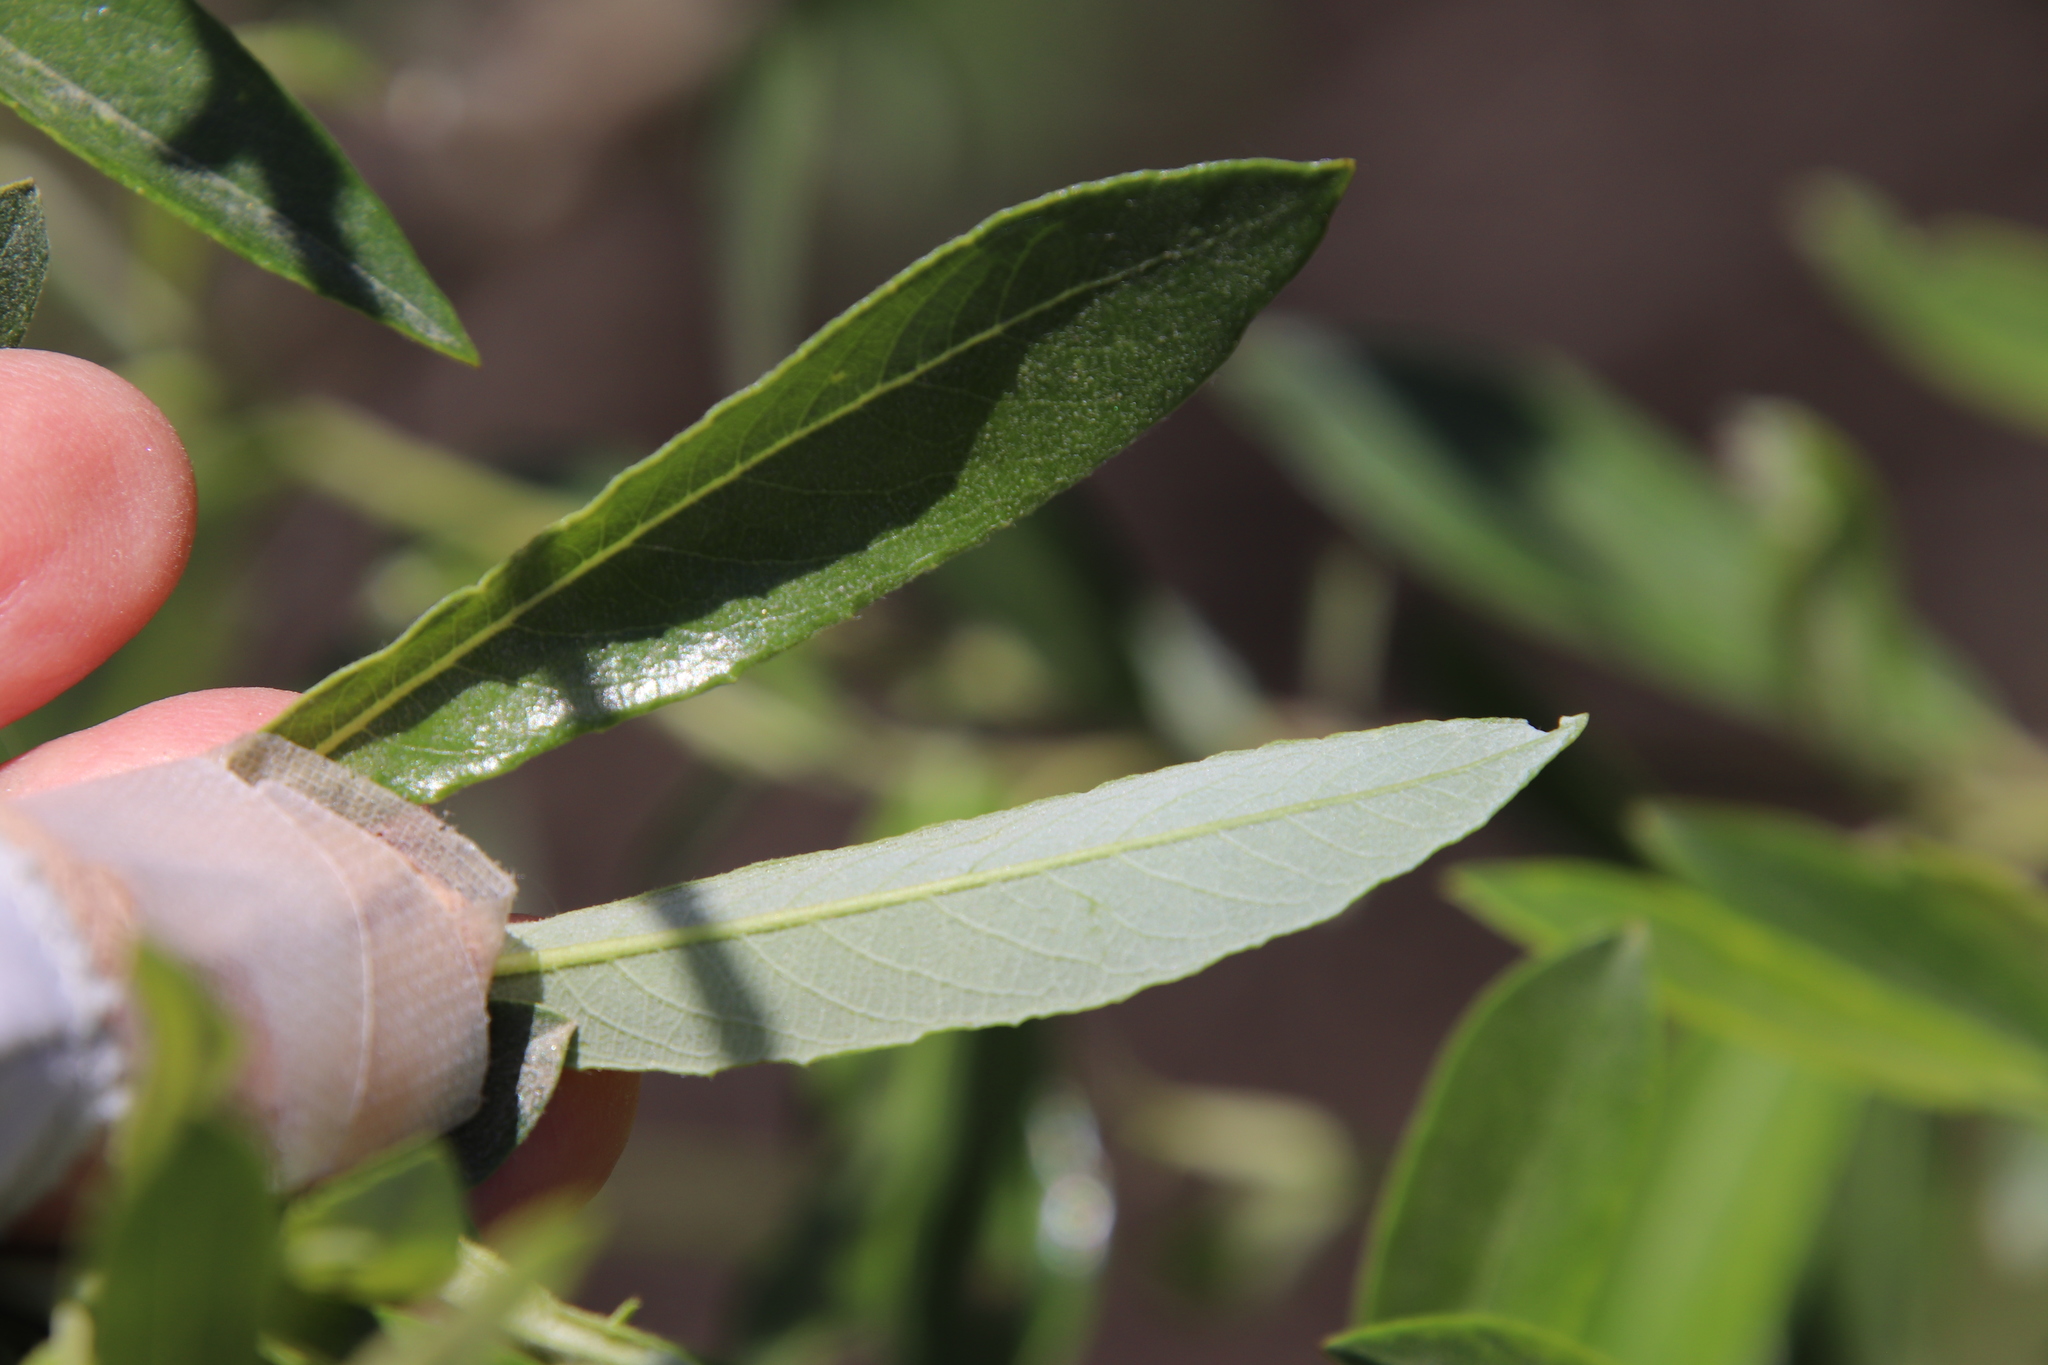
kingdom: Plantae
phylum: Tracheophyta
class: Magnoliopsida
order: Malpighiales
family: Salicaceae
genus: Salix
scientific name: Salix lasiolepis
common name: Arroyo willow
